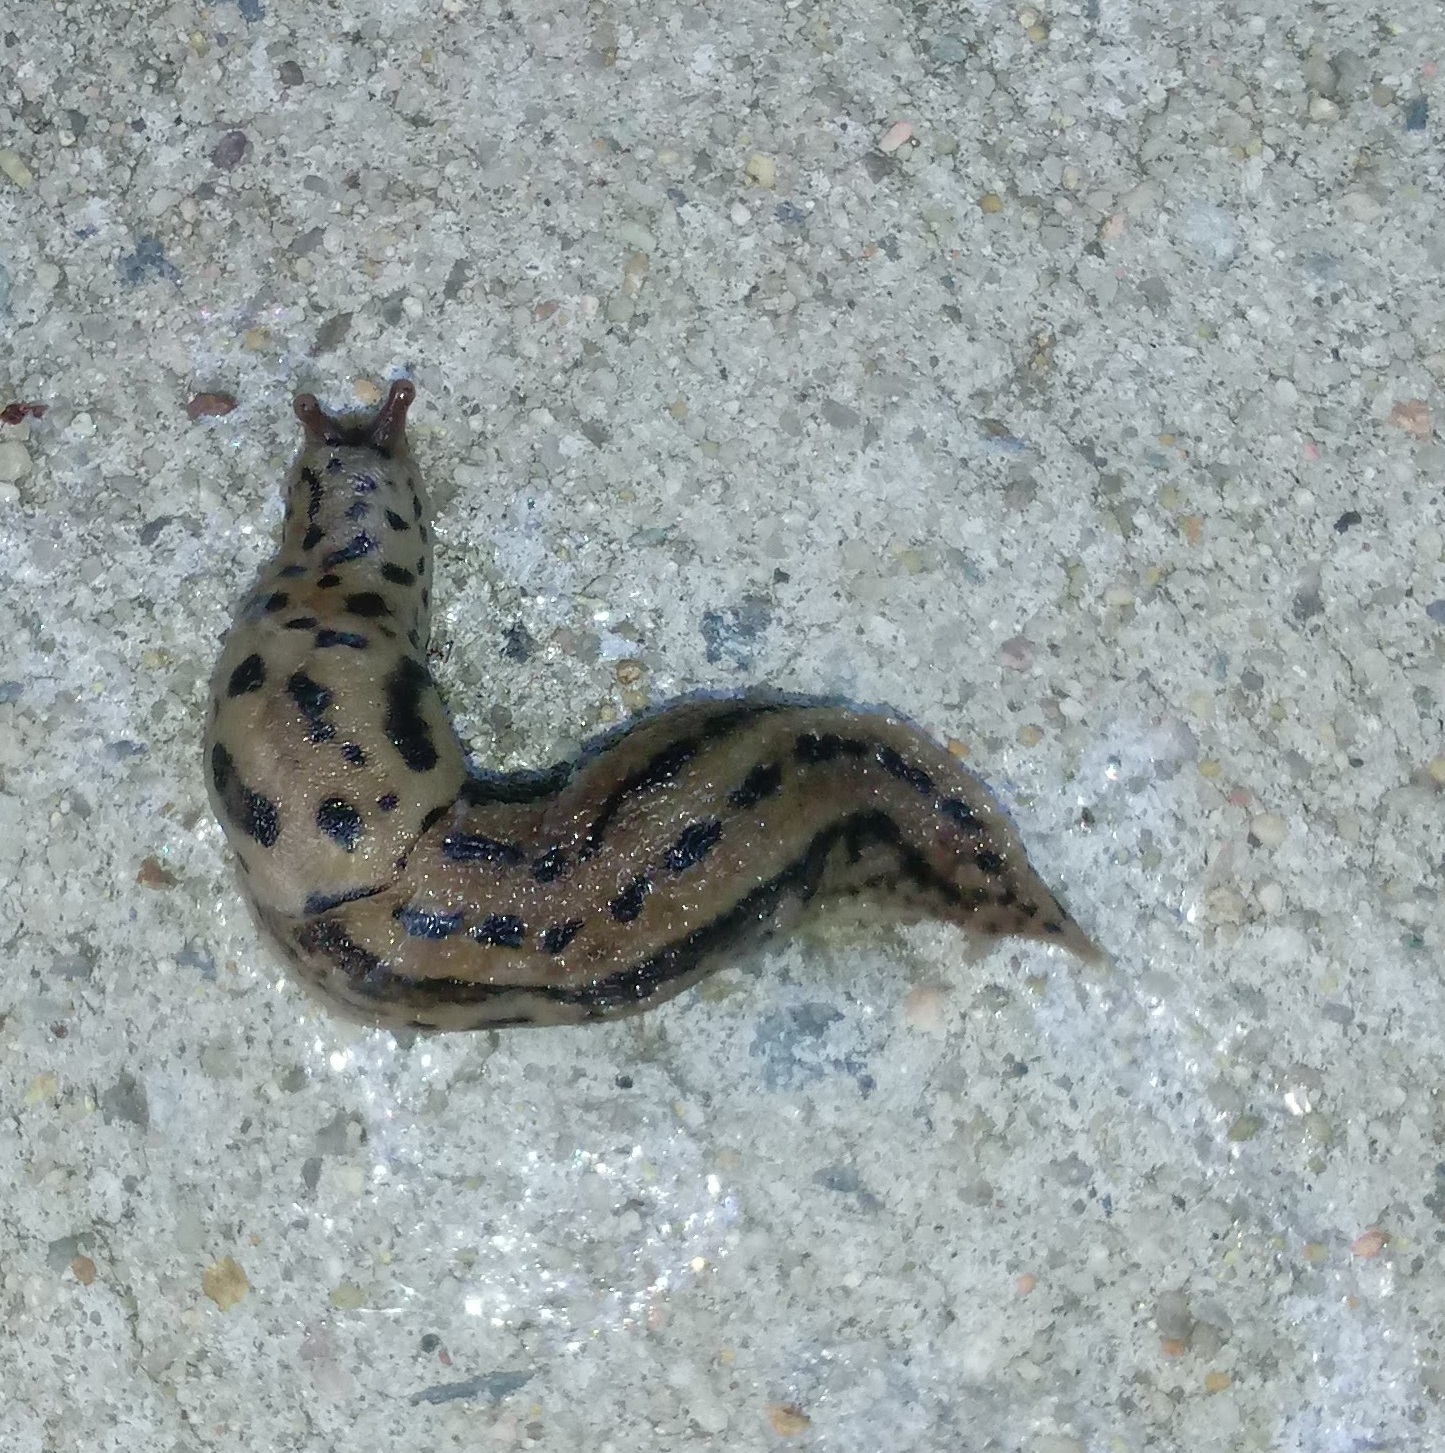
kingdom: Animalia
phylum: Mollusca
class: Gastropoda
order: Stylommatophora
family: Limacidae
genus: Limax
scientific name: Limax maximus
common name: Great grey slug
